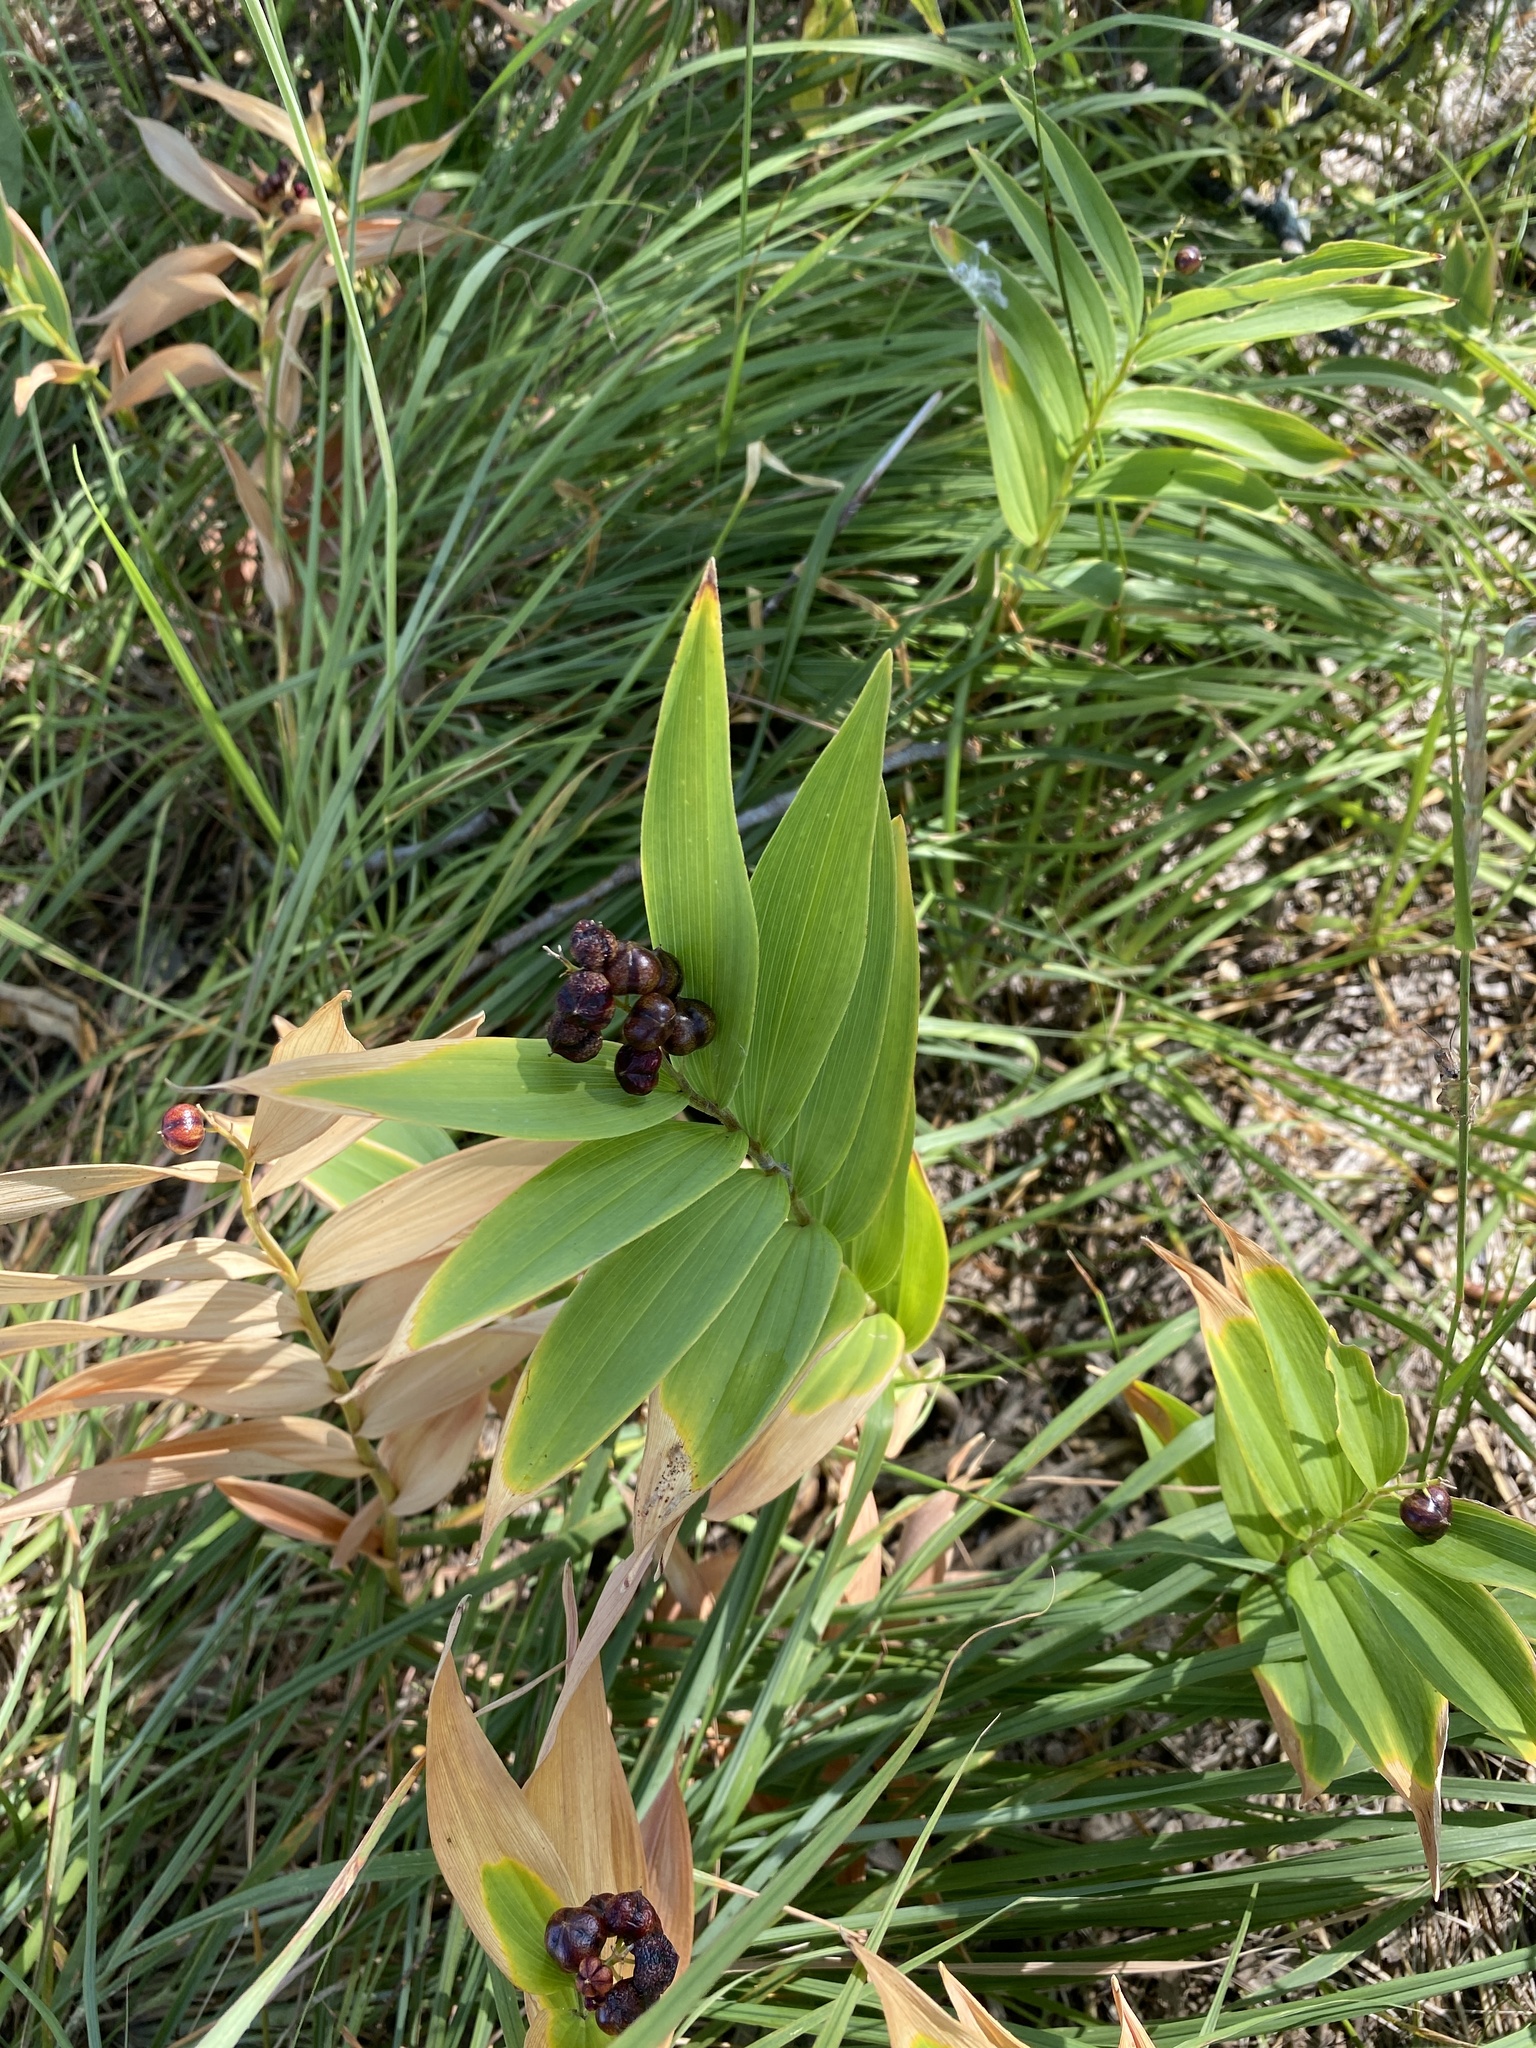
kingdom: Plantae
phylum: Tracheophyta
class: Liliopsida
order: Asparagales
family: Asparagaceae
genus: Maianthemum
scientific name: Maianthemum stellatum
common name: Little false solomon's seal
